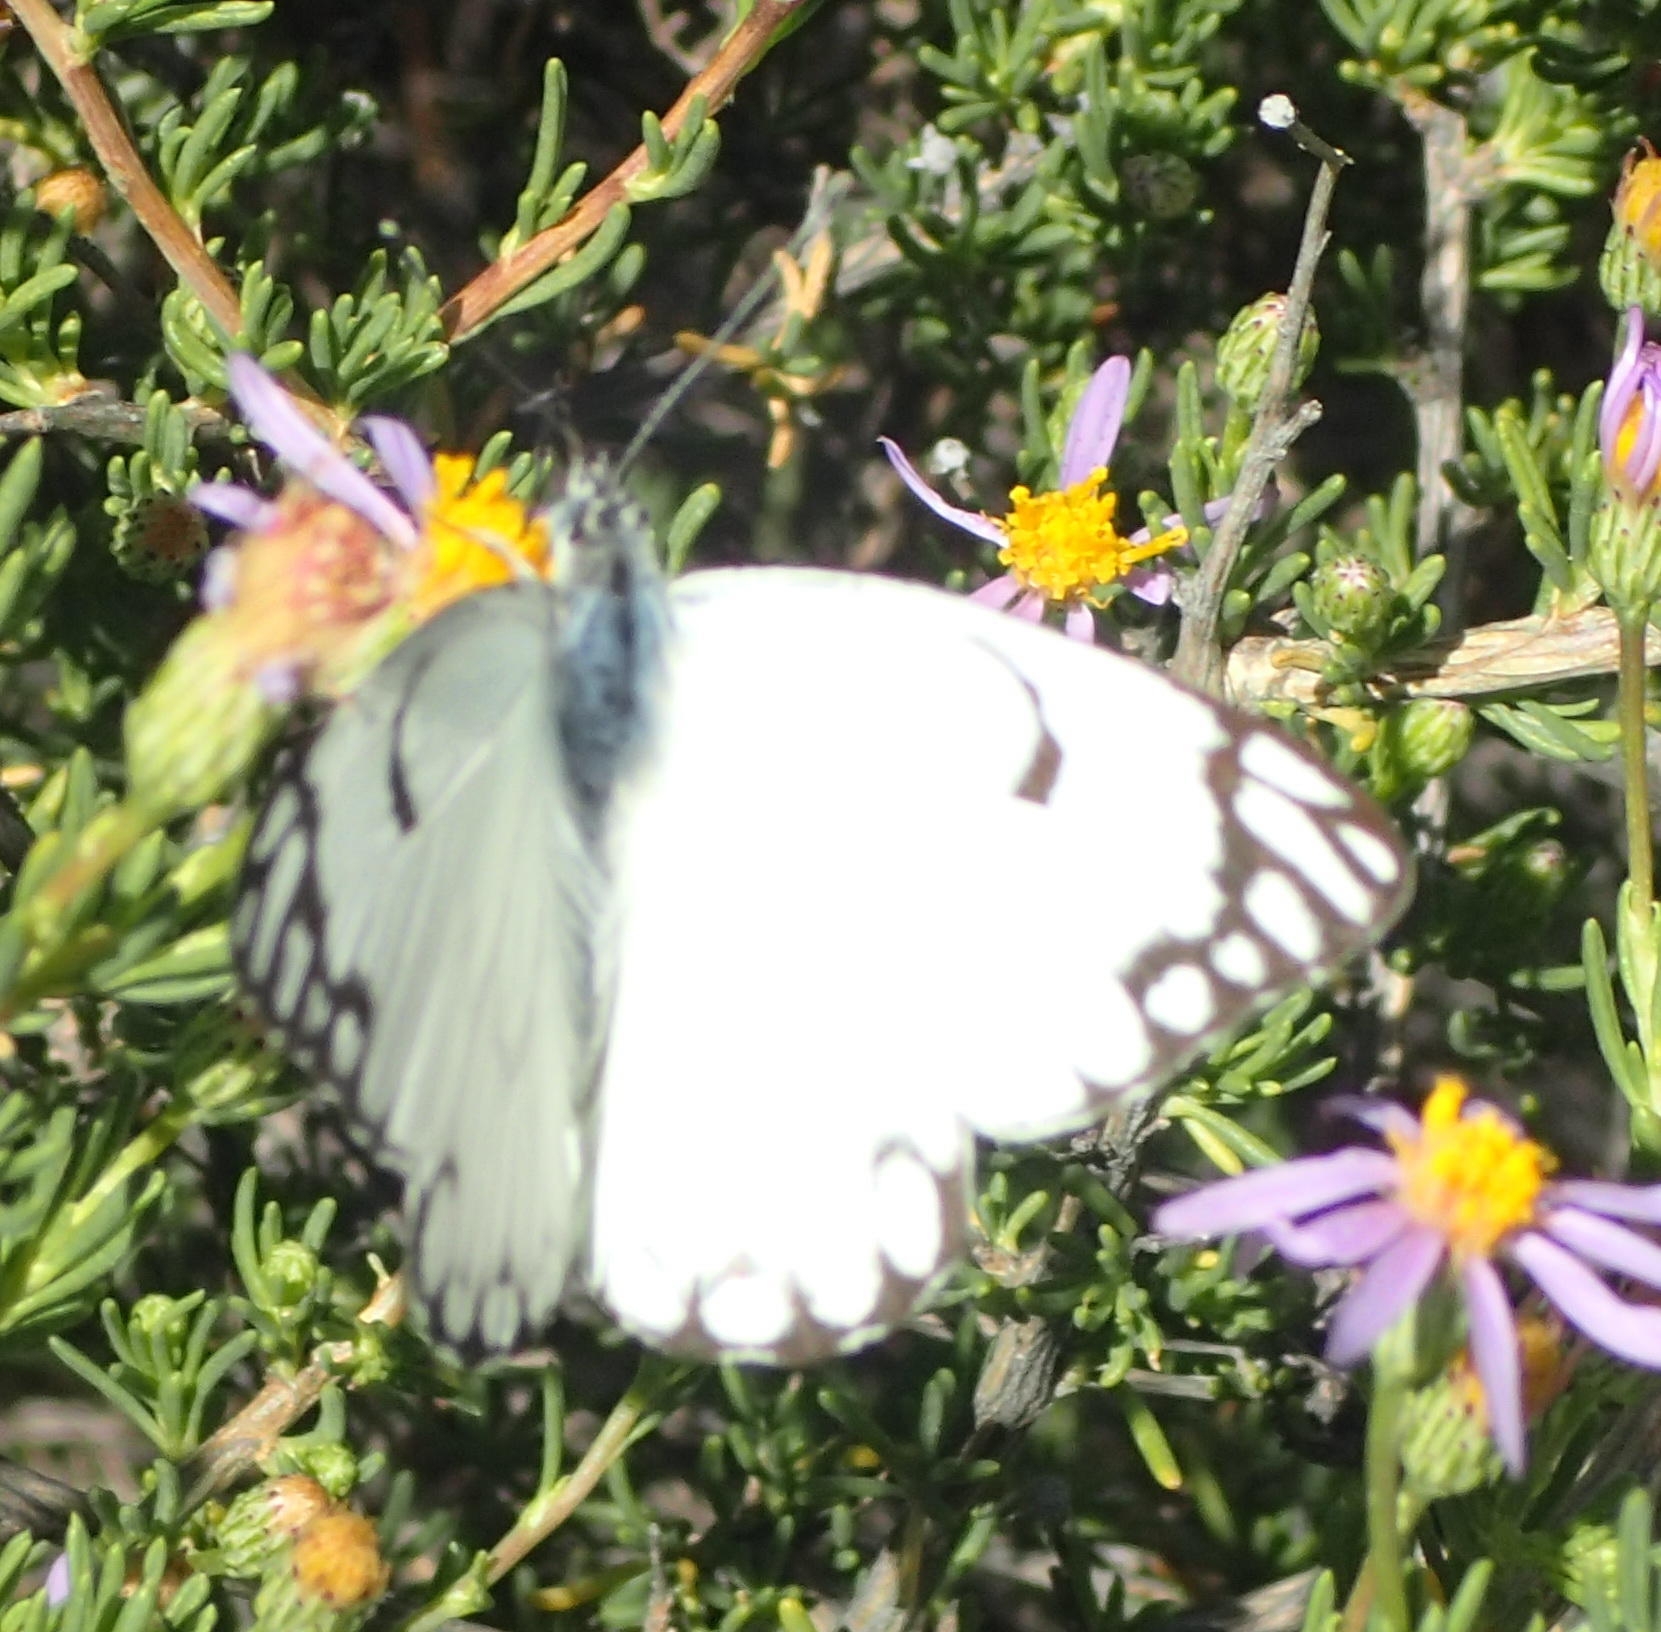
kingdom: Animalia
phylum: Arthropoda
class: Insecta
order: Lepidoptera
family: Pieridae
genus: Belenois
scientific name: Belenois aurota
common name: Brown-veined white
